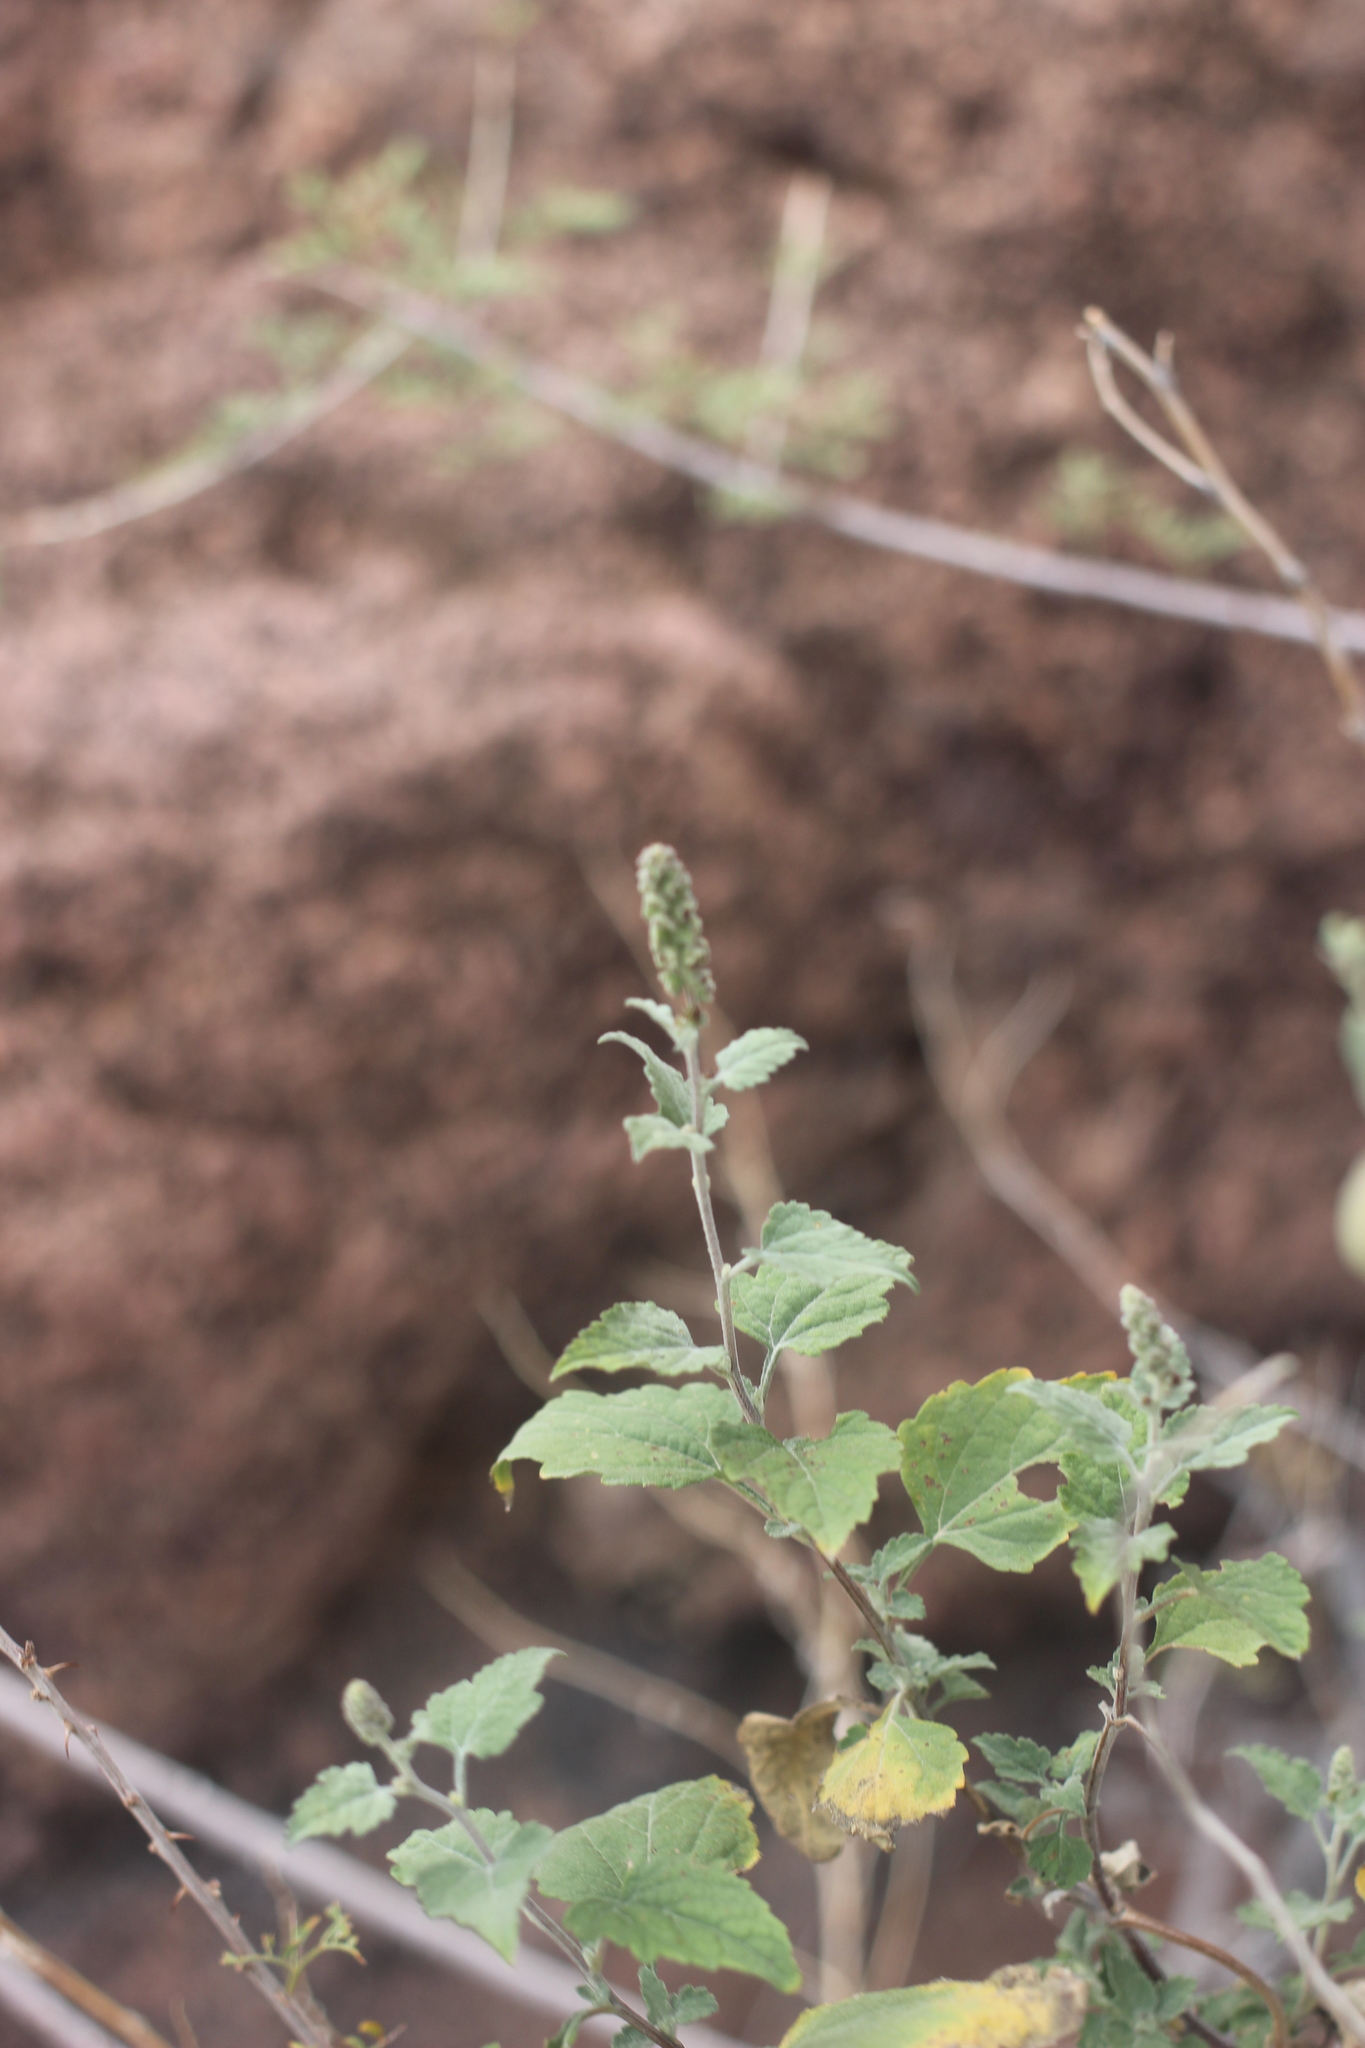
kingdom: Plantae
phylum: Tracheophyta
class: Magnoliopsida
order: Asterales
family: Asteraceae
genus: Ambrosia
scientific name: Ambrosia cordifolia
